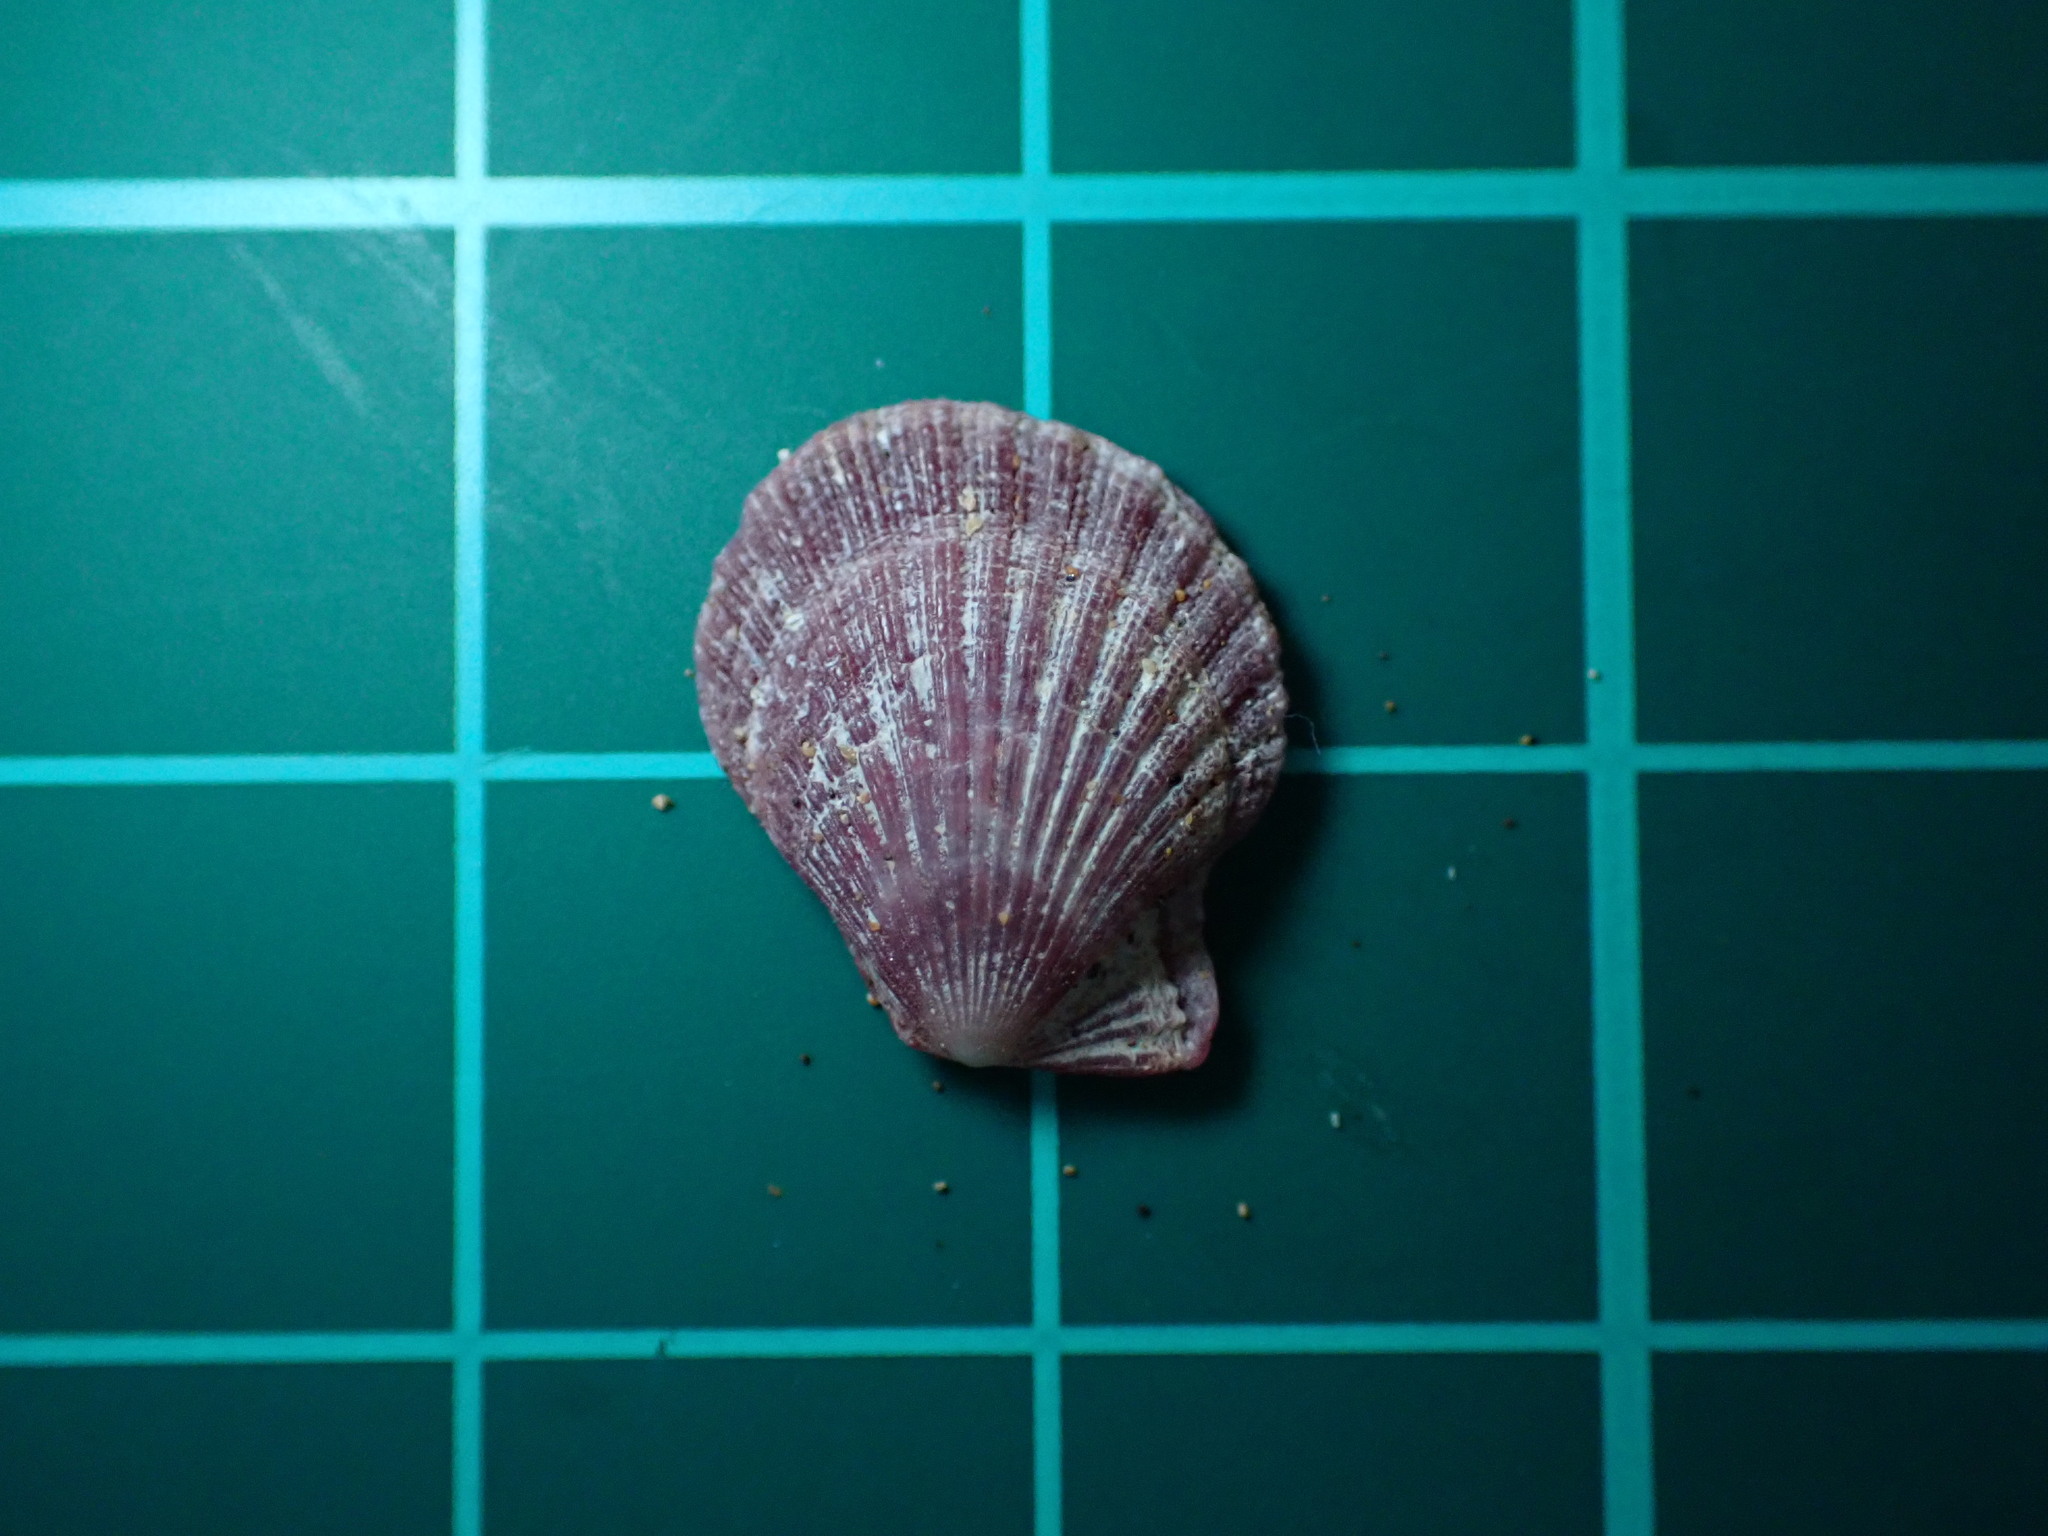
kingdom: Animalia
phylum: Mollusca
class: Bivalvia
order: Pectinida
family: Pectinidae
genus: Pascahinnites
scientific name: Pascahinnites coruscans
